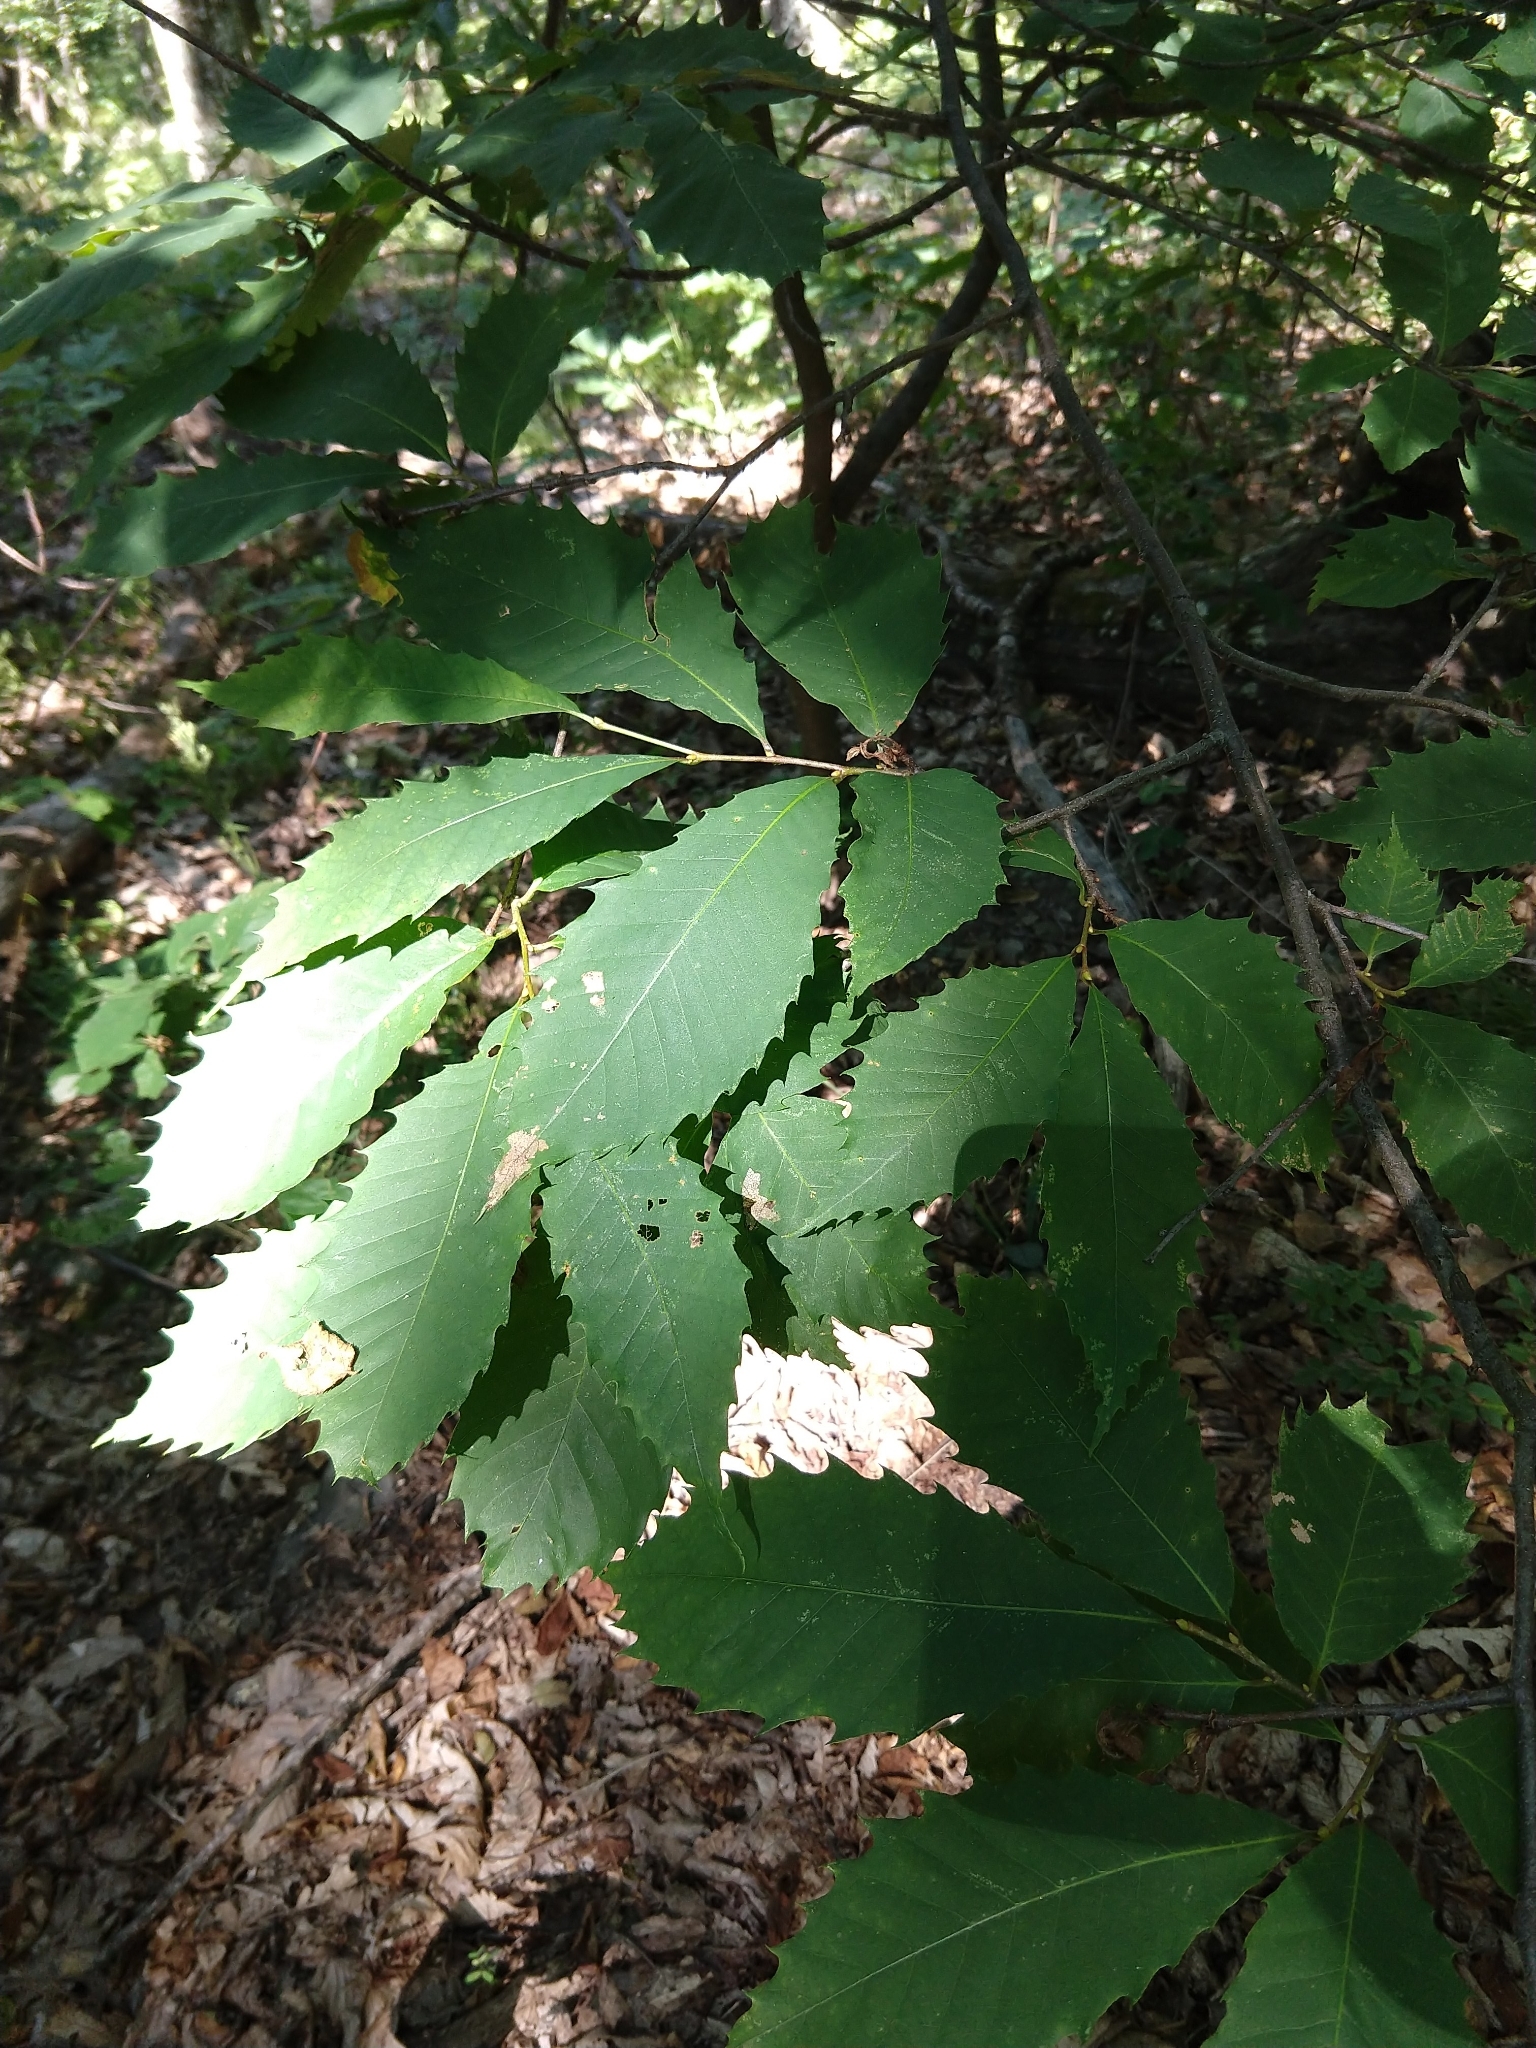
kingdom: Plantae
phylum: Tracheophyta
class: Magnoliopsida
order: Fagales
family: Fagaceae
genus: Castanea
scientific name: Castanea dentata
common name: American chestnut
